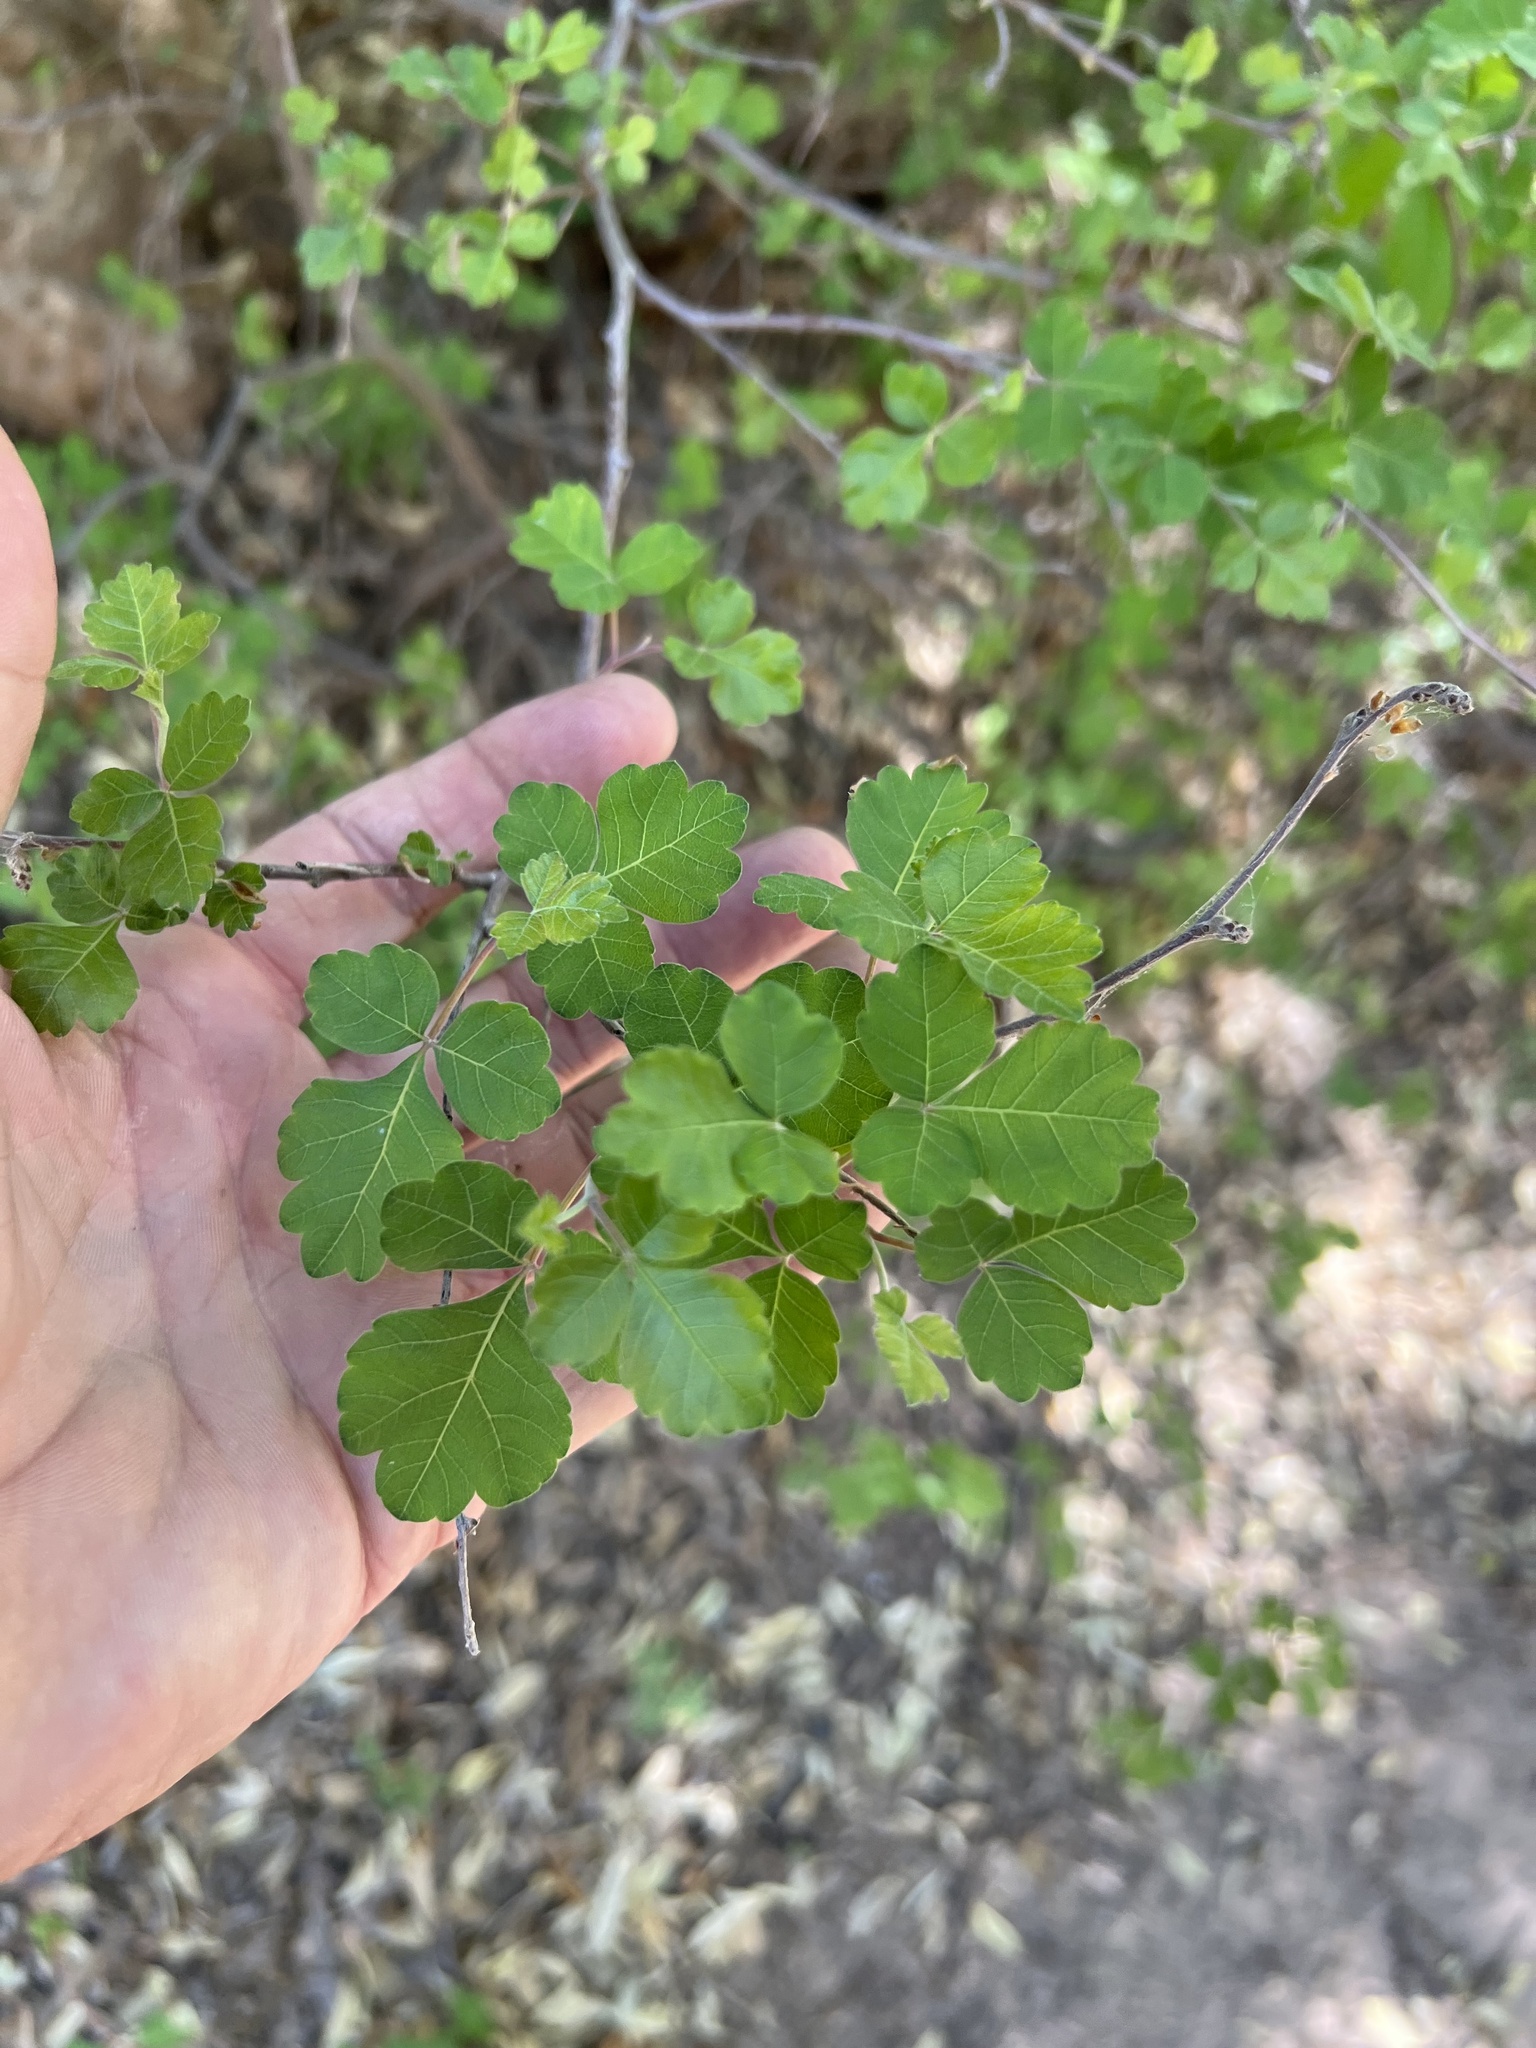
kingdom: Plantae
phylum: Tracheophyta
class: Magnoliopsida
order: Sapindales
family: Anacardiaceae
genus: Rhus
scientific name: Rhus aromatica
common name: Aromatic sumac
